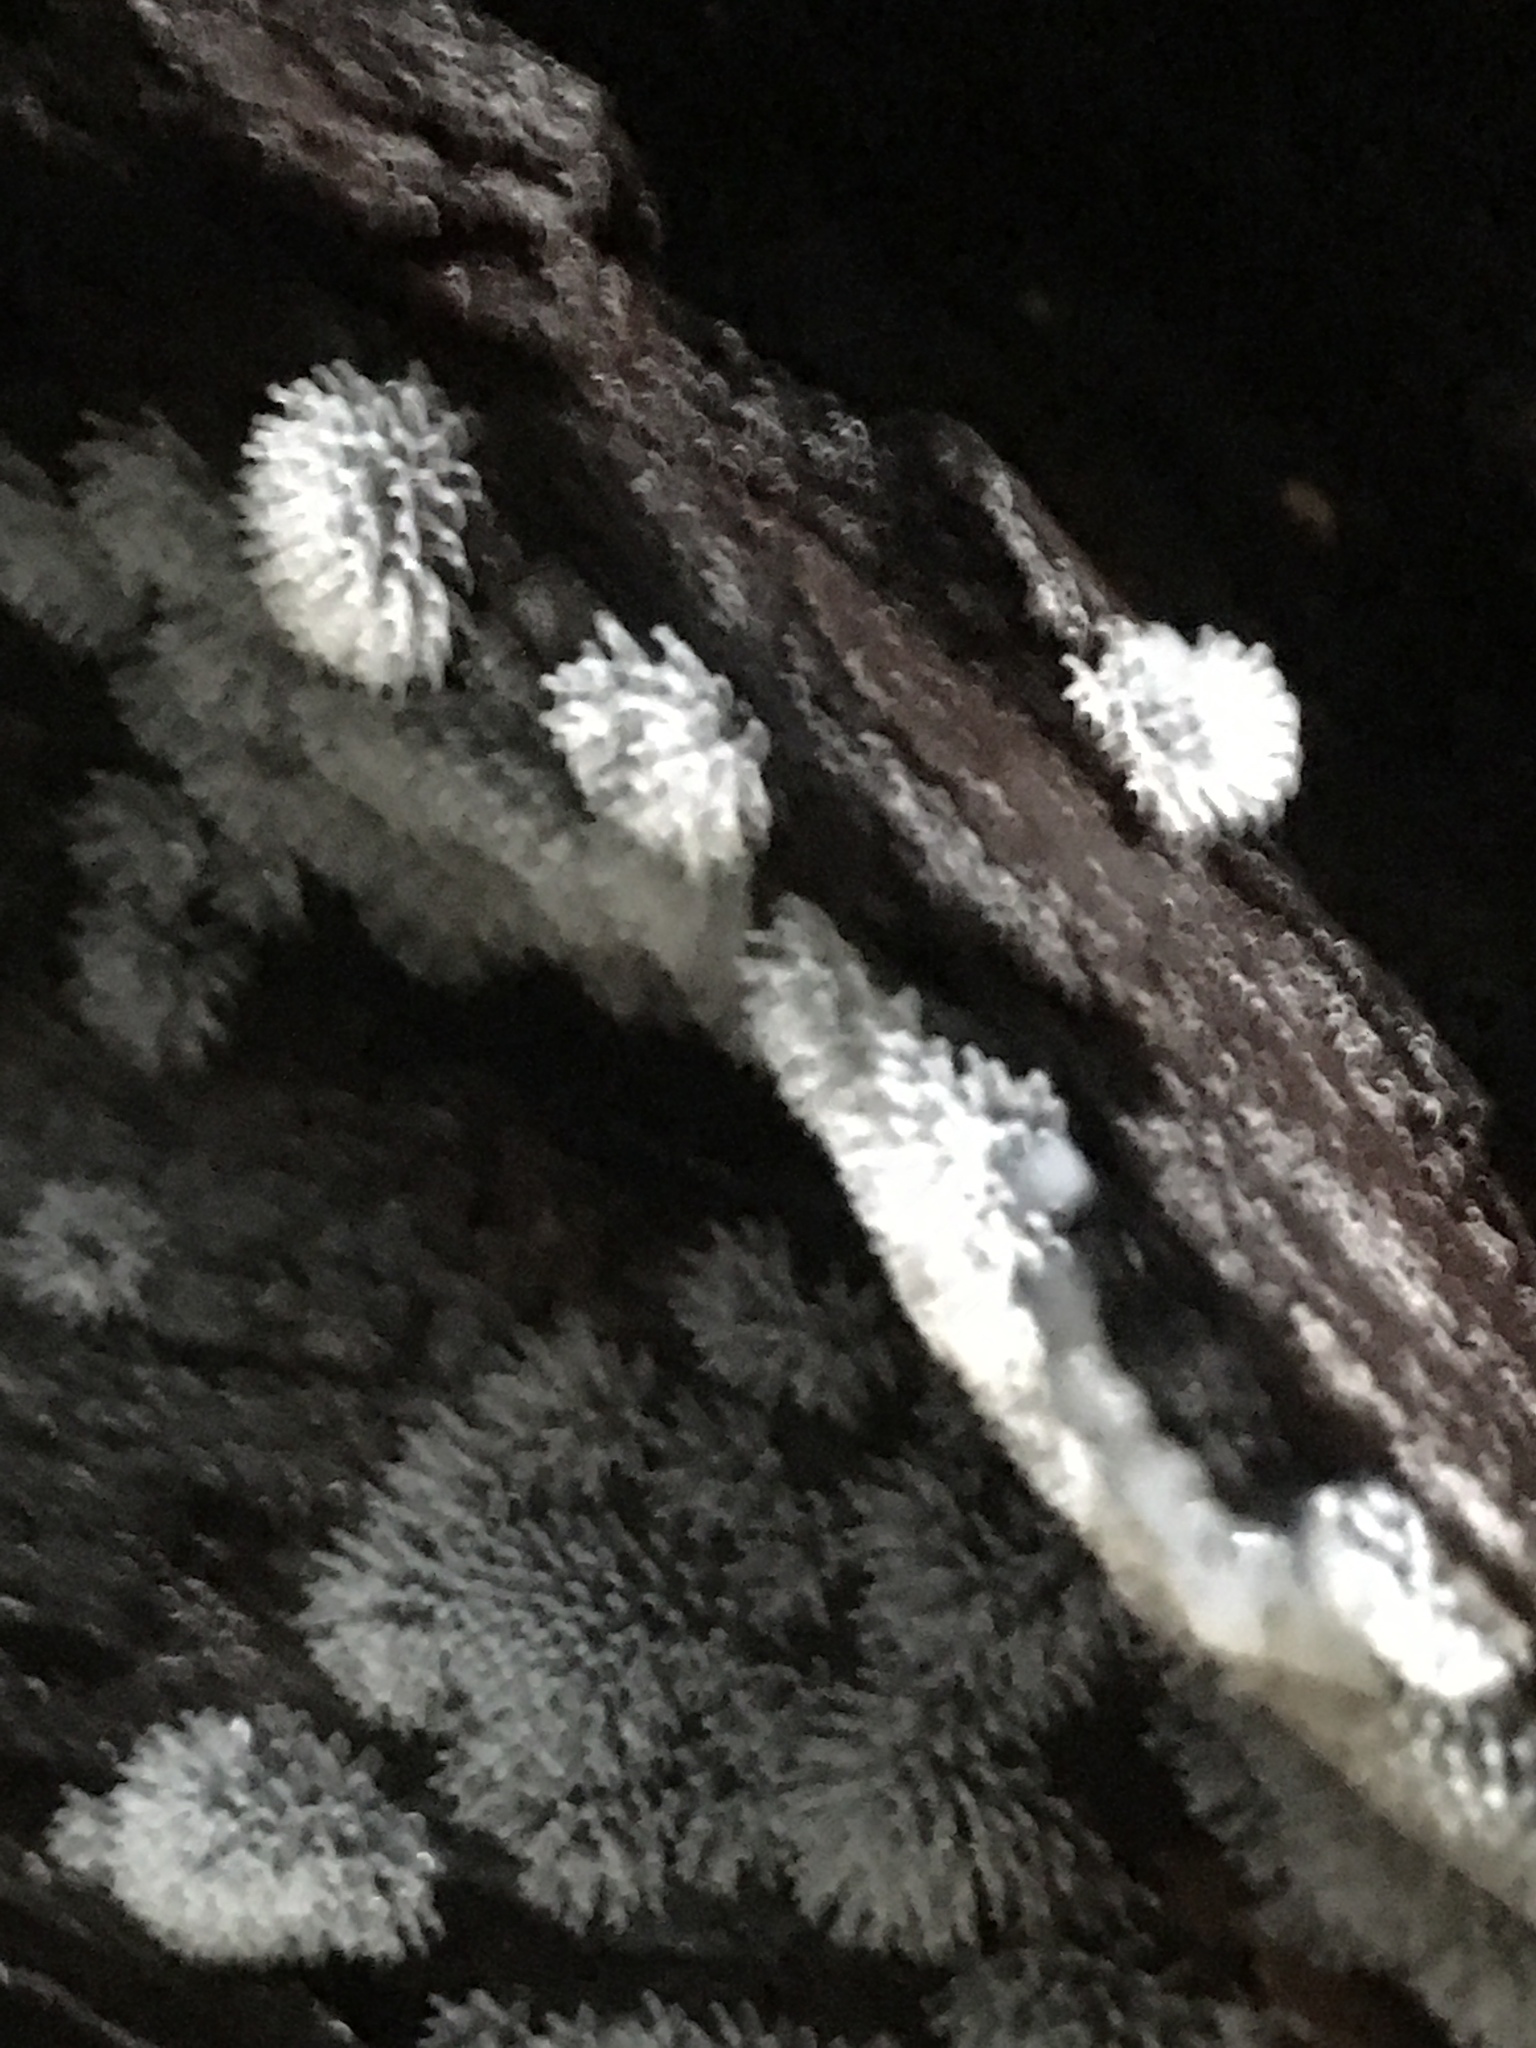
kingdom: Protozoa
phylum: Mycetozoa
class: Protosteliomycetes
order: Ceratiomyxales
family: Ceratiomyxaceae
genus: Ceratiomyxa
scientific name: Ceratiomyxa fruticulosa
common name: Honeycomb coral slime mold
